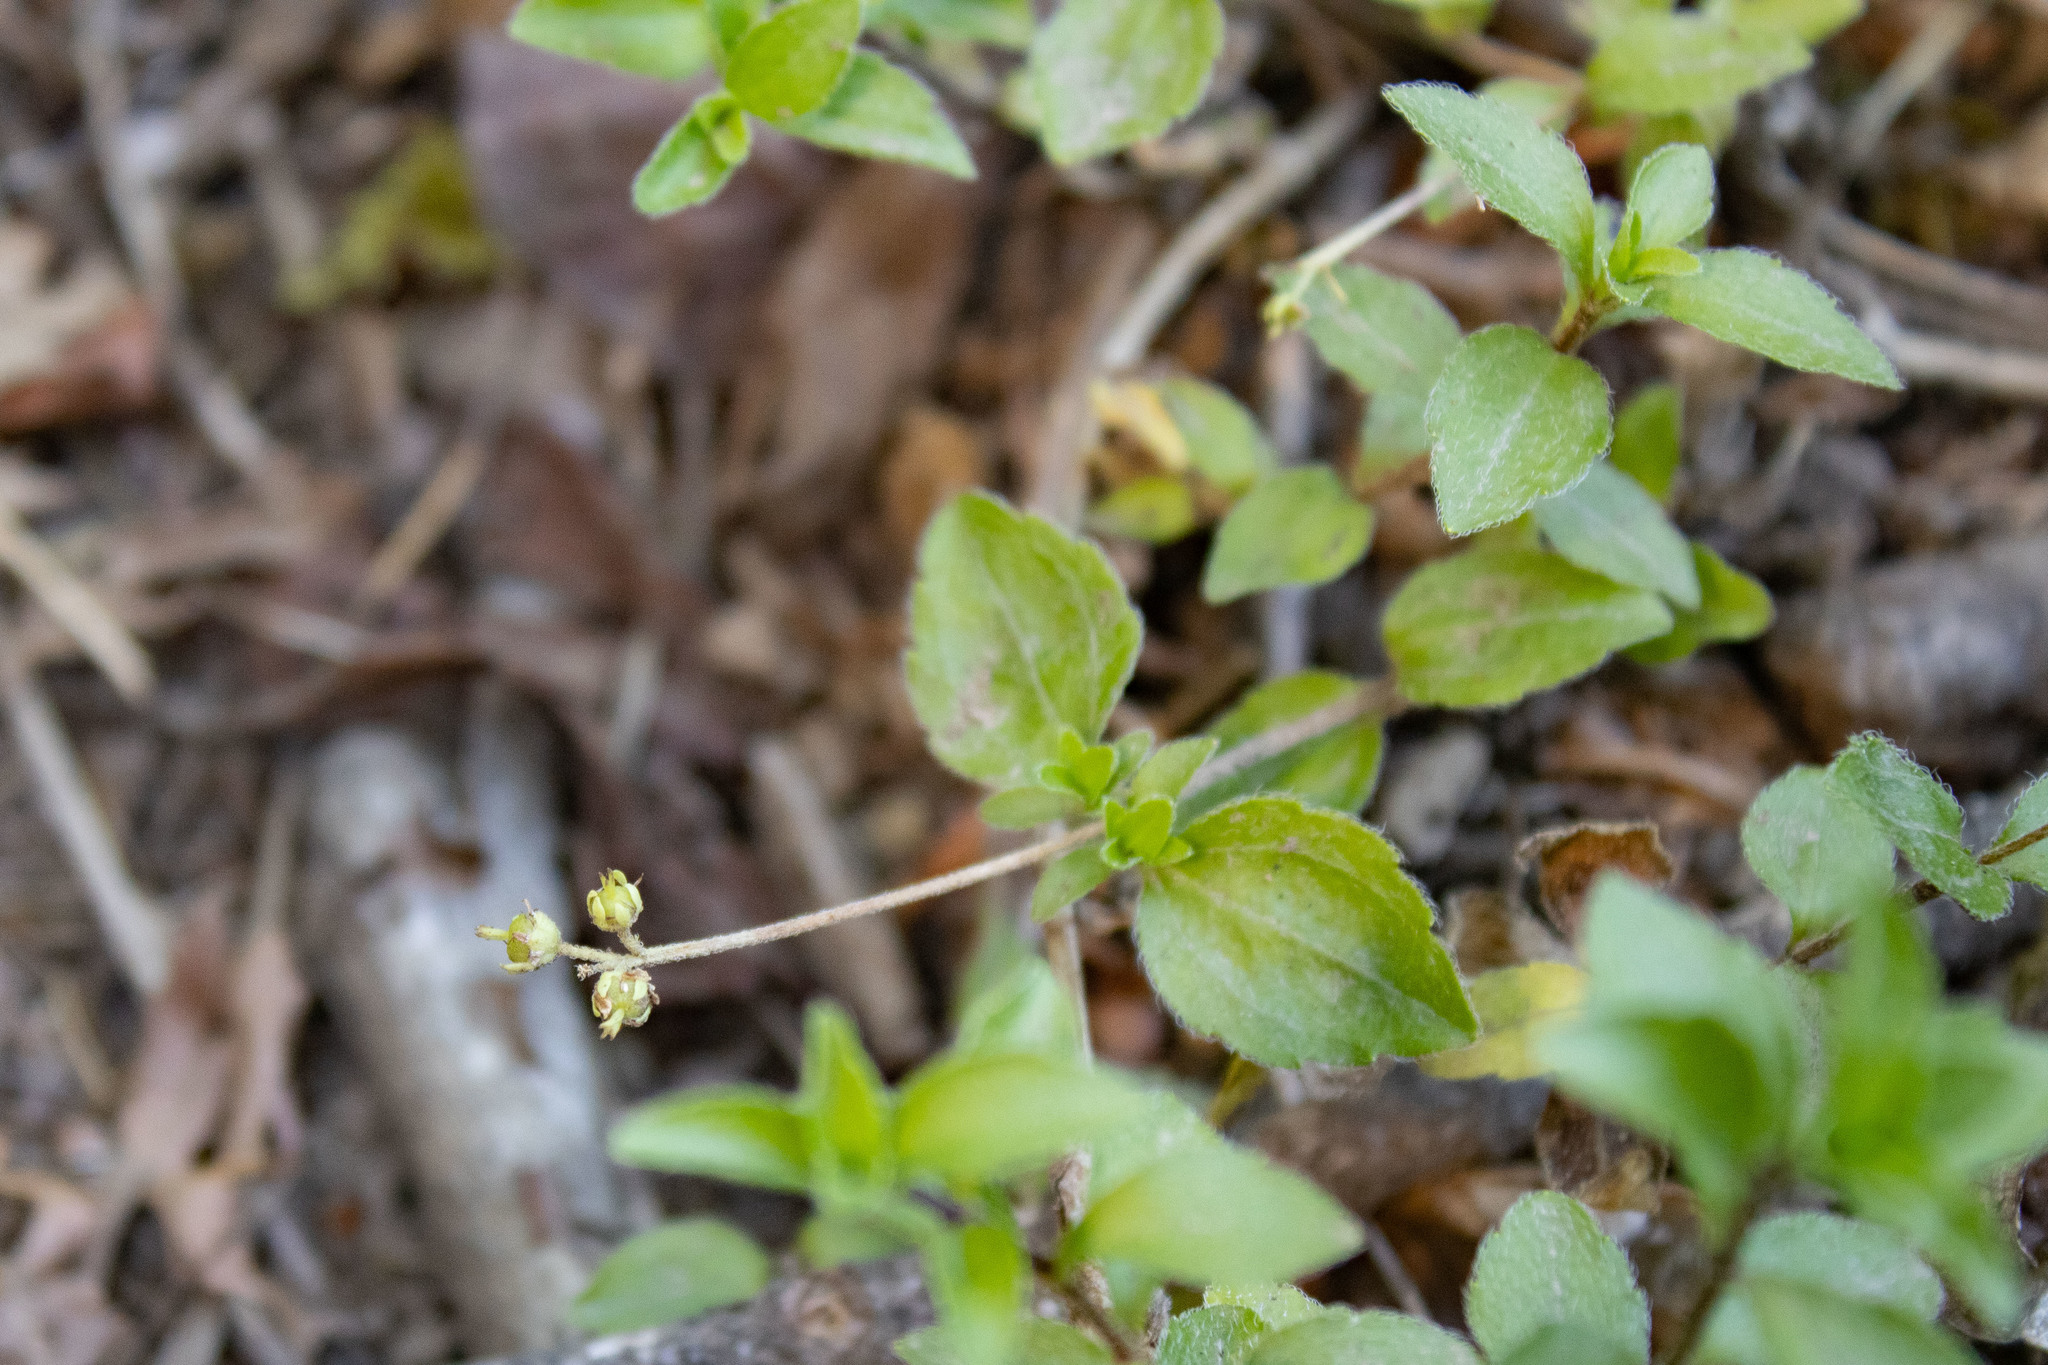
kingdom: Plantae
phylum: Tracheophyta
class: Magnoliopsida
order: Cornales
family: Hydrangeaceae
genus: Whipplea
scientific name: Whipplea modesta
